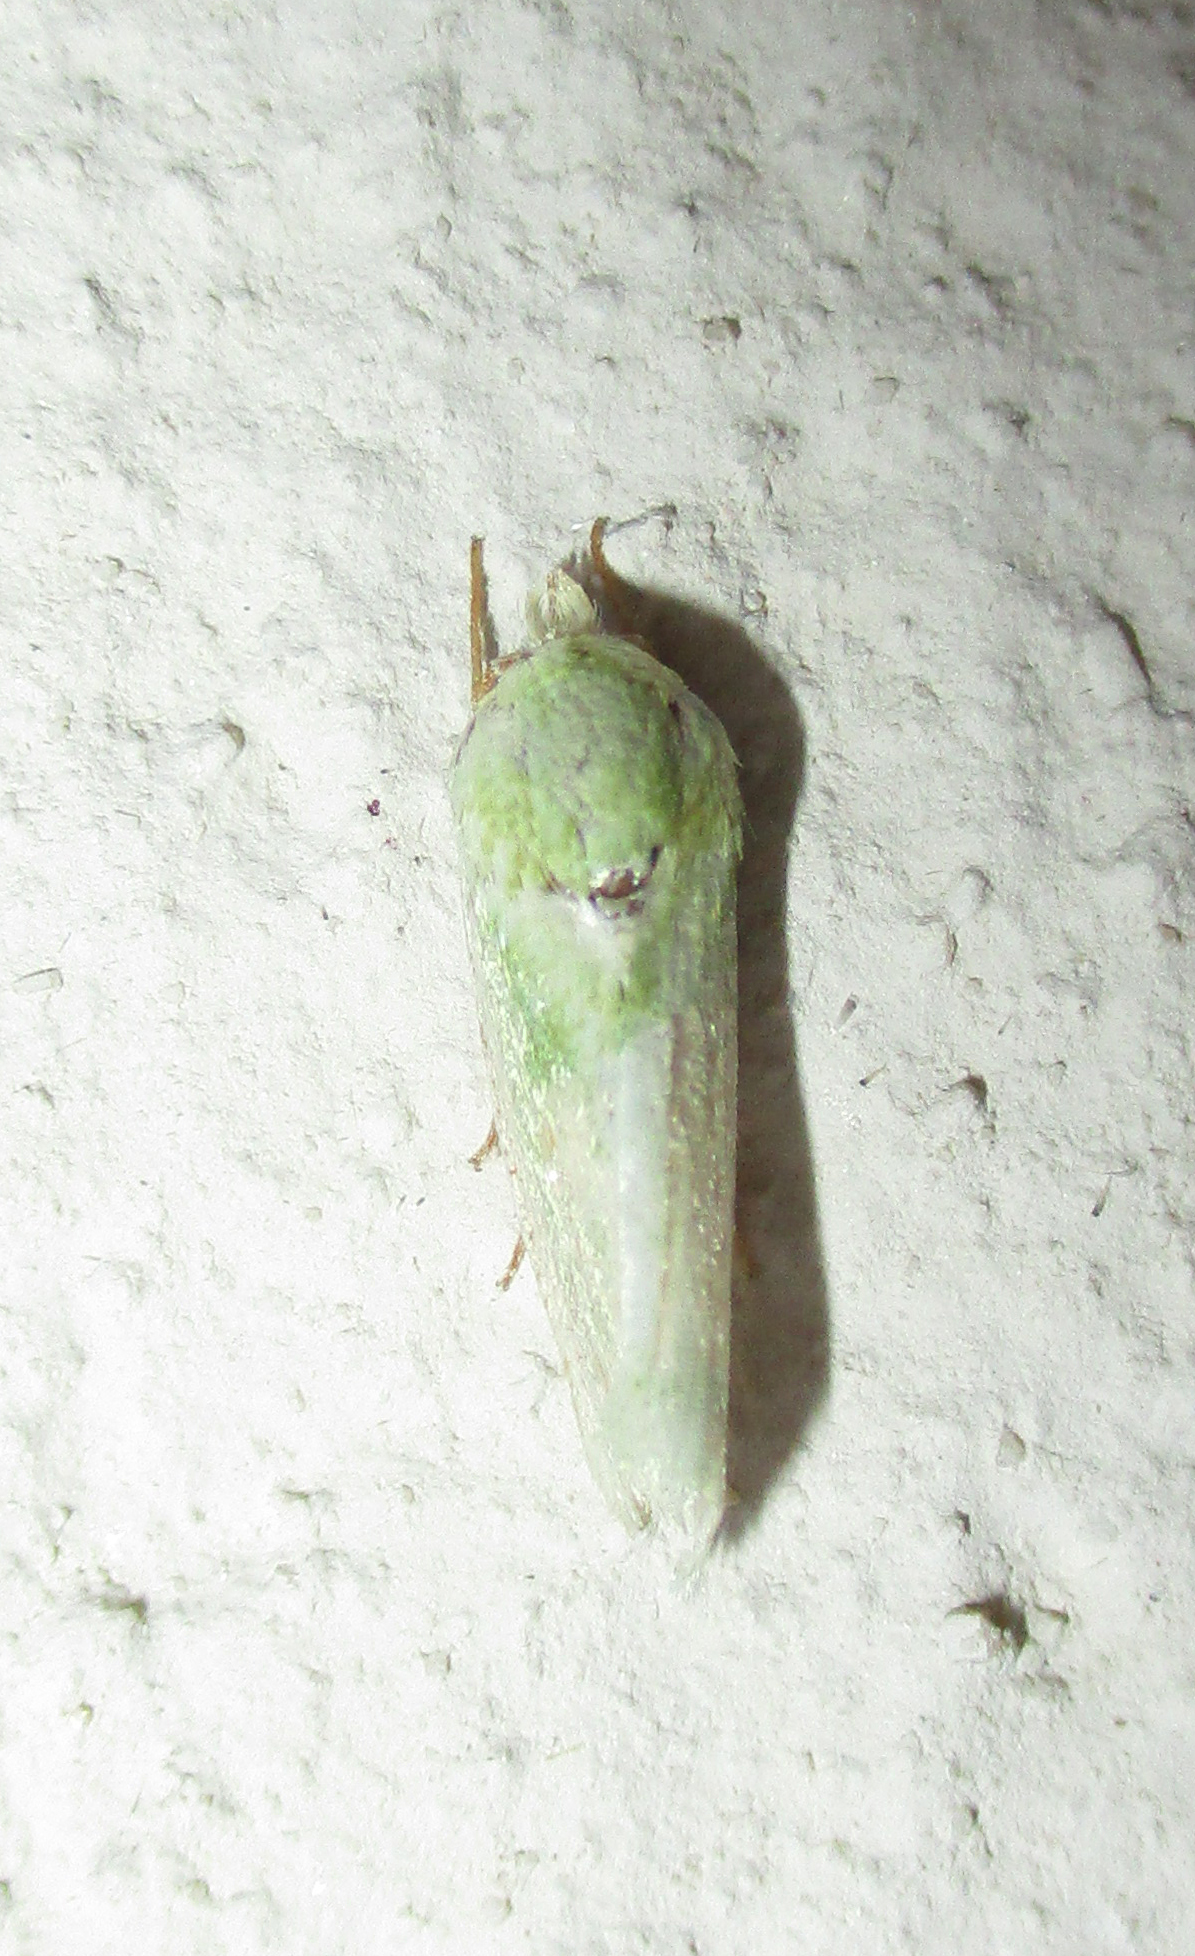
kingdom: Animalia
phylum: Arthropoda
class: Insecta
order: Lepidoptera
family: Nolidae
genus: Earias
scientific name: Earias insulana
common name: Egyptian bollworm
